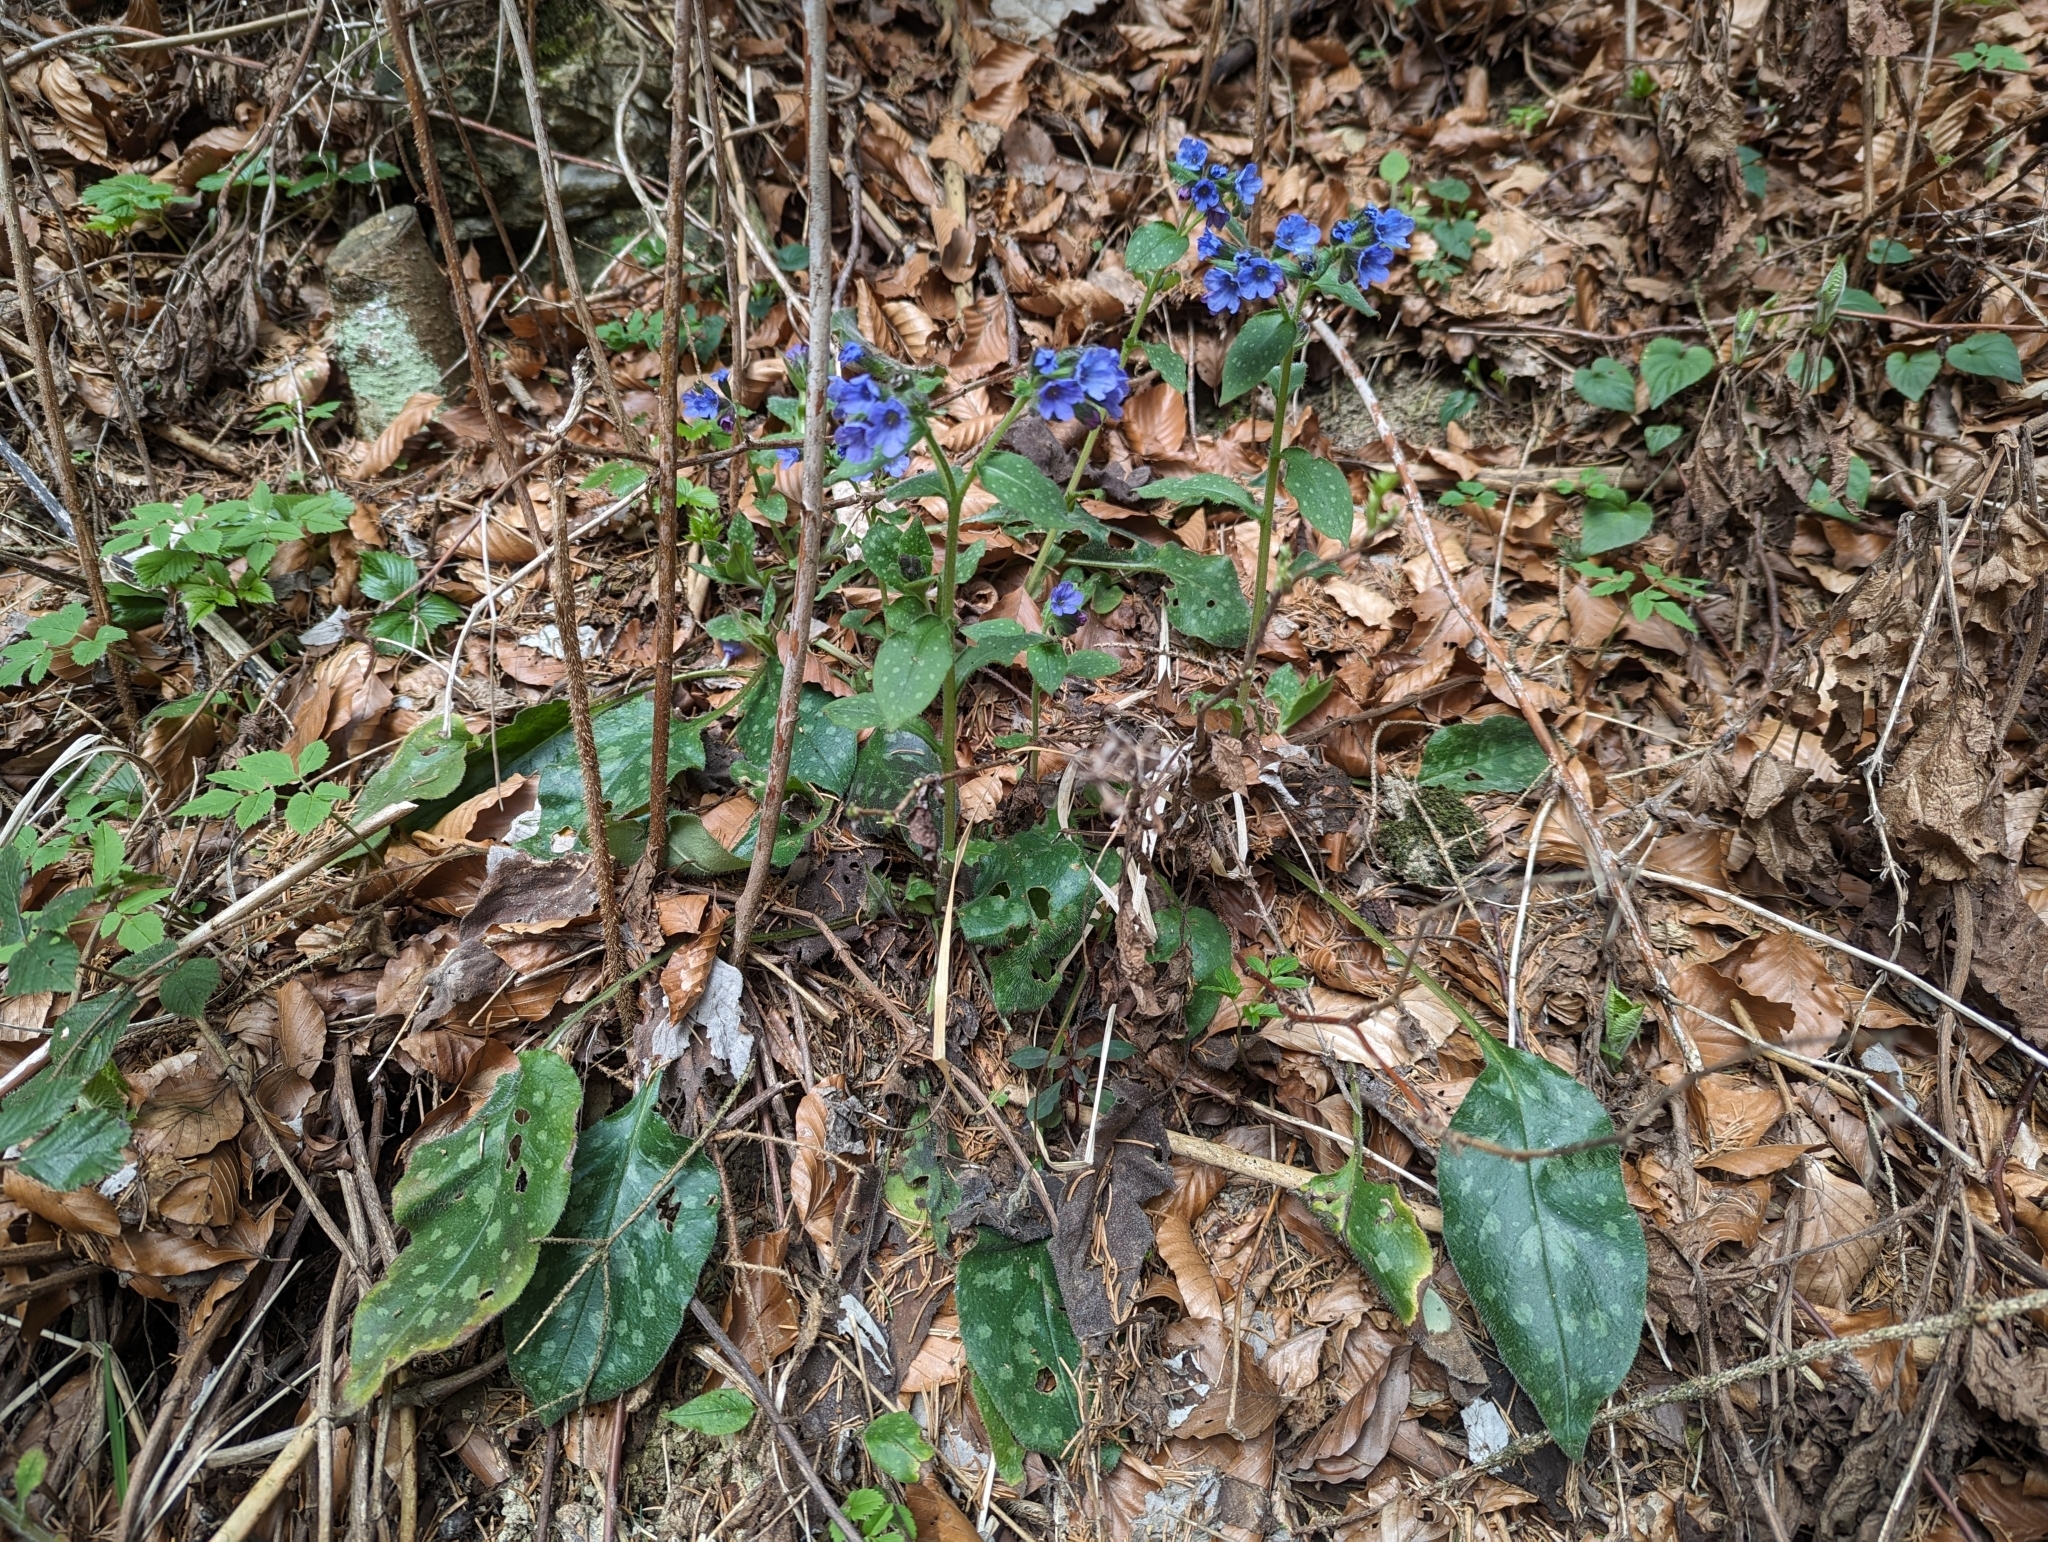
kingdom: Plantae
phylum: Tracheophyta
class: Magnoliopsida
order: Boraginales
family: Boraginaceae
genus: Pulmonaria
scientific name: Pulmonaria officinalis
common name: Lungwort
